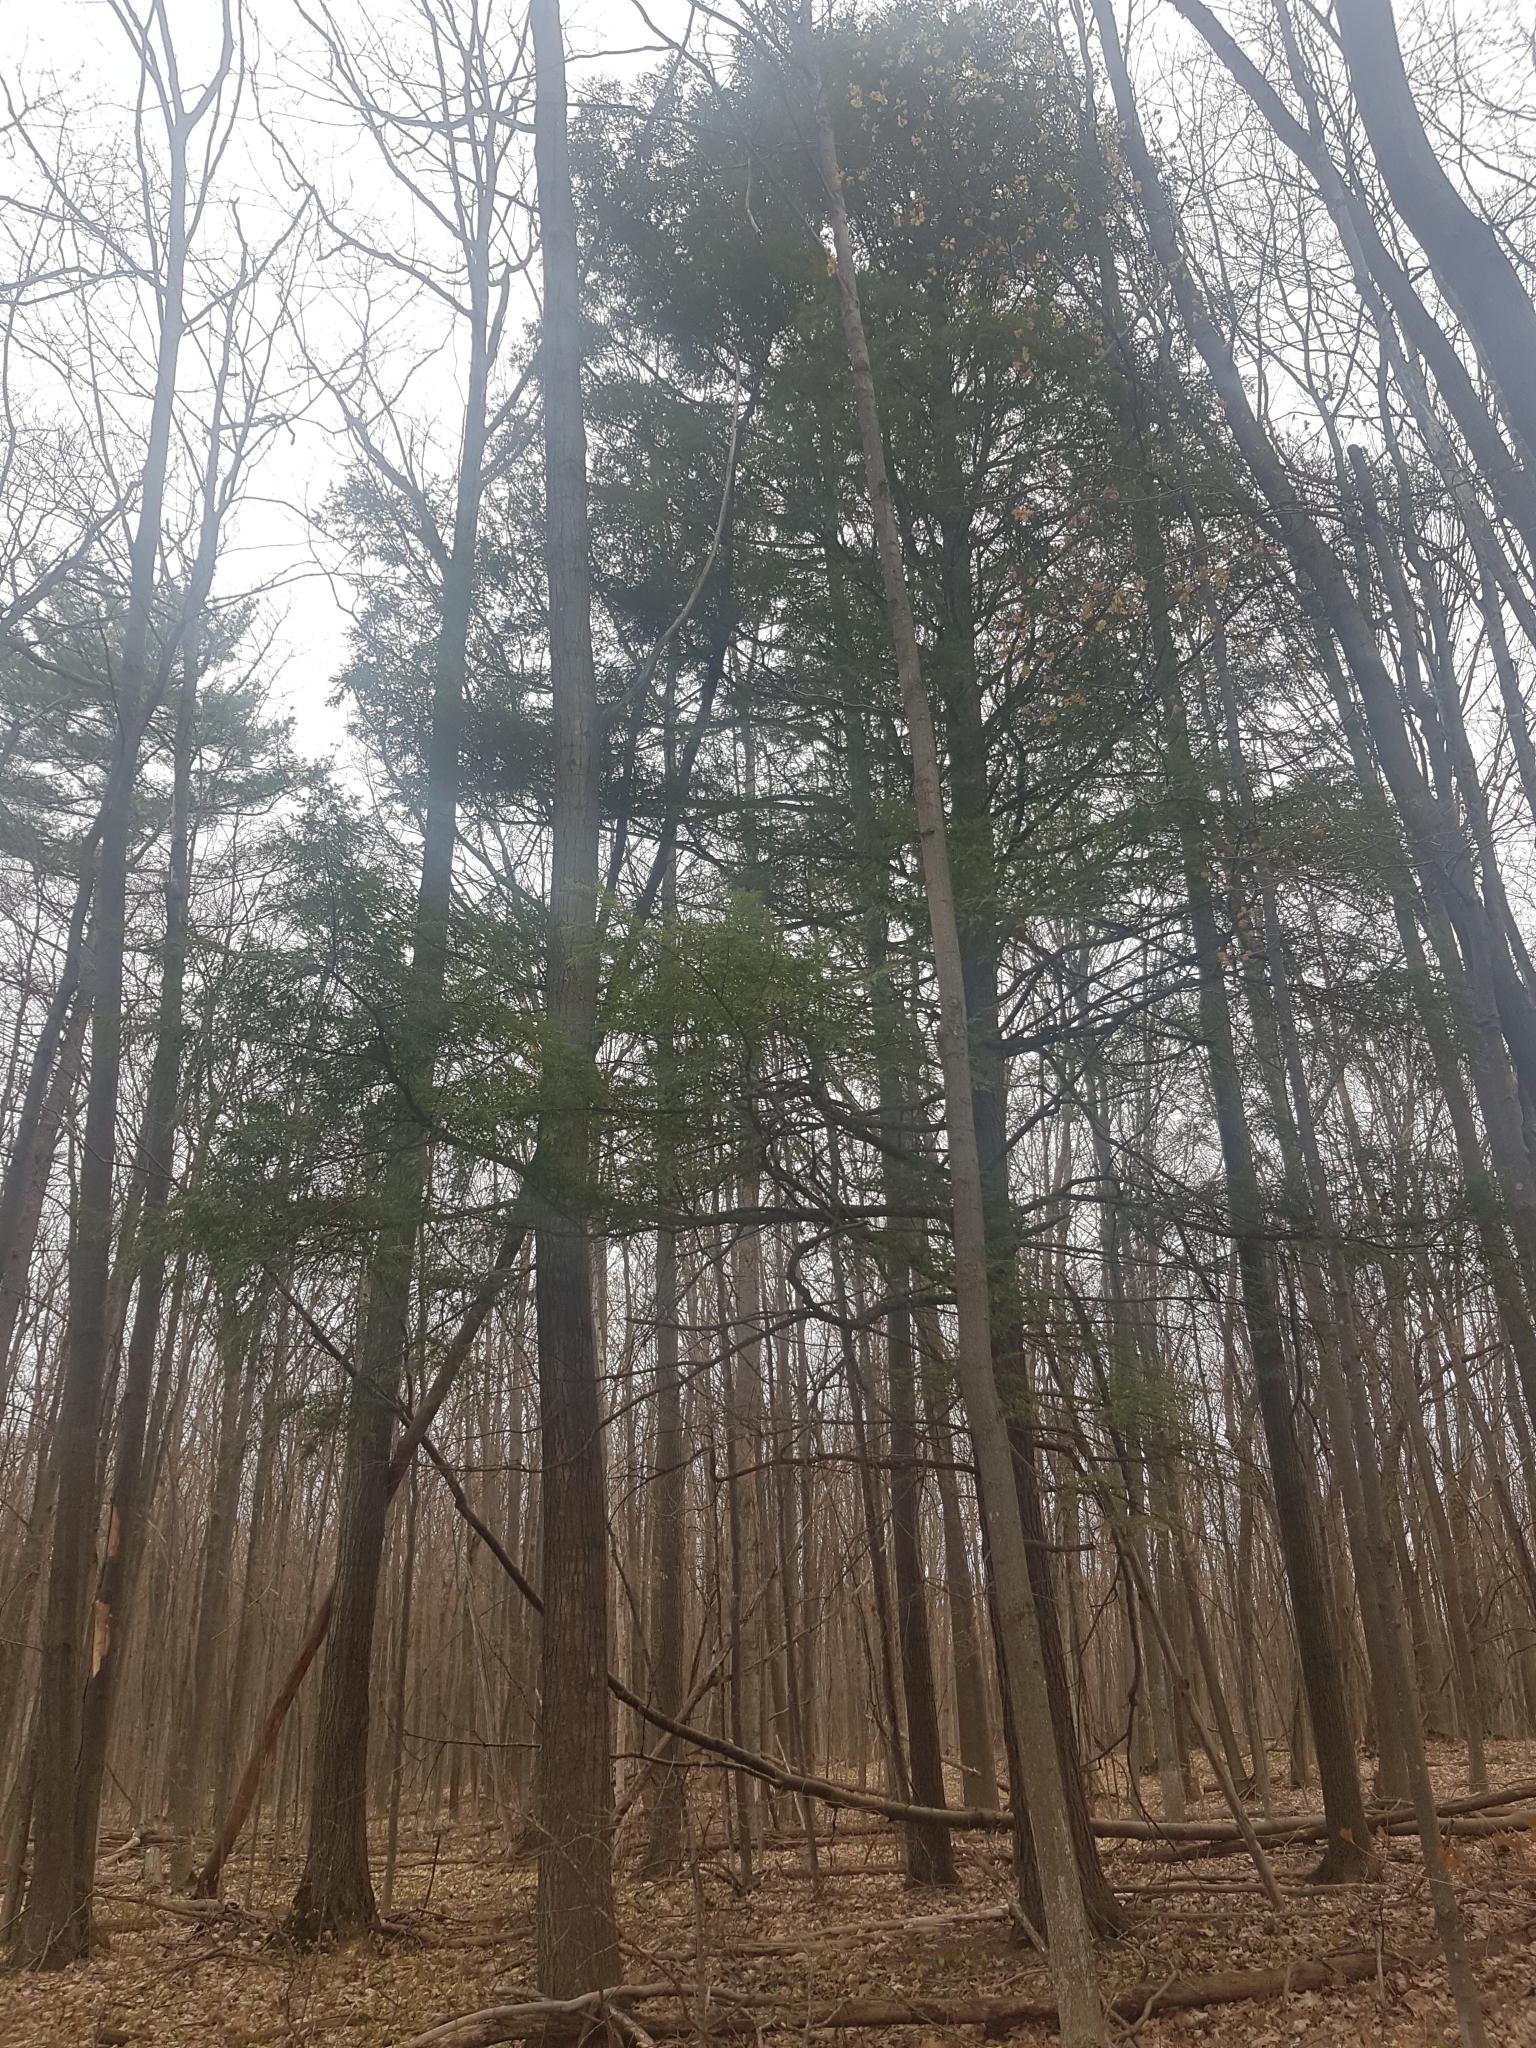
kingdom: Plantae
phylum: Tracheophyta
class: Pinopsida
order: Pinales
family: Pinaceae
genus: Tsuga
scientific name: Tsuga canadensis
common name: Eastern hemlock
